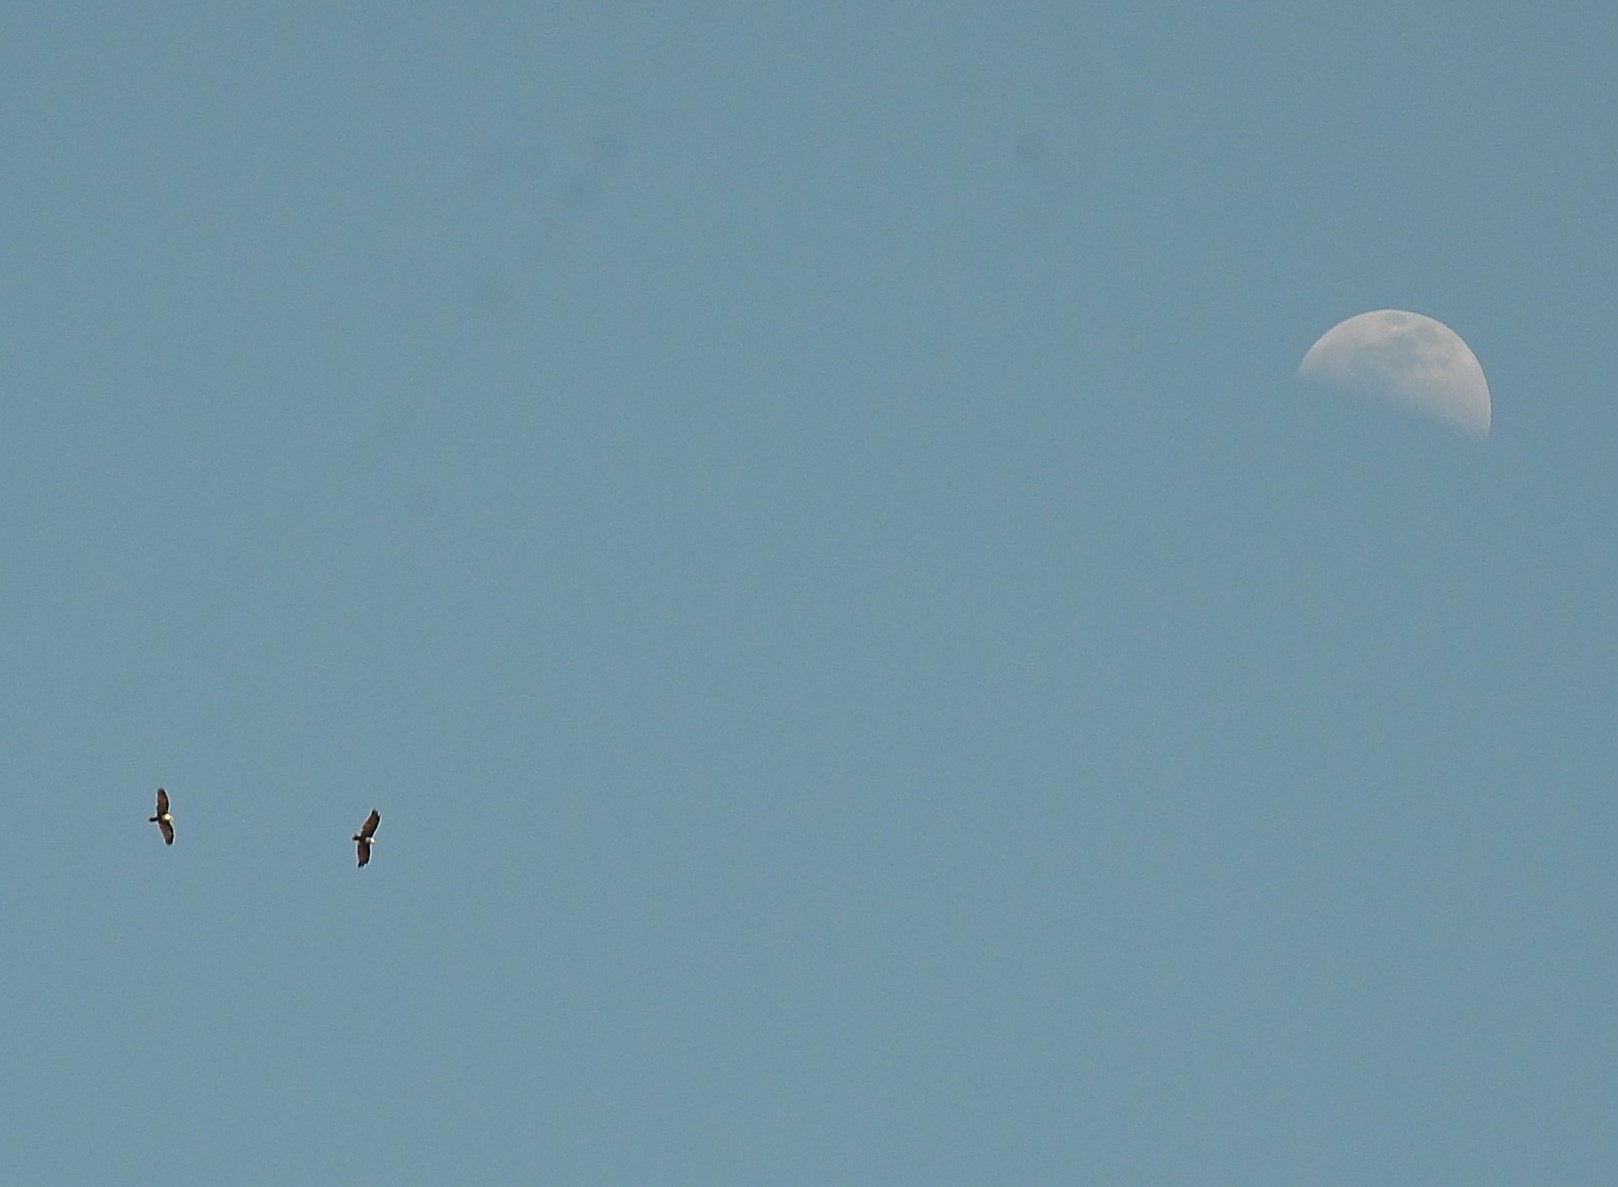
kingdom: Animalia
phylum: Chordata
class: Aves
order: Accipitriformes
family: Accipitridae
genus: Haliastur
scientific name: Haliastur indus
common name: Brahminy kite
